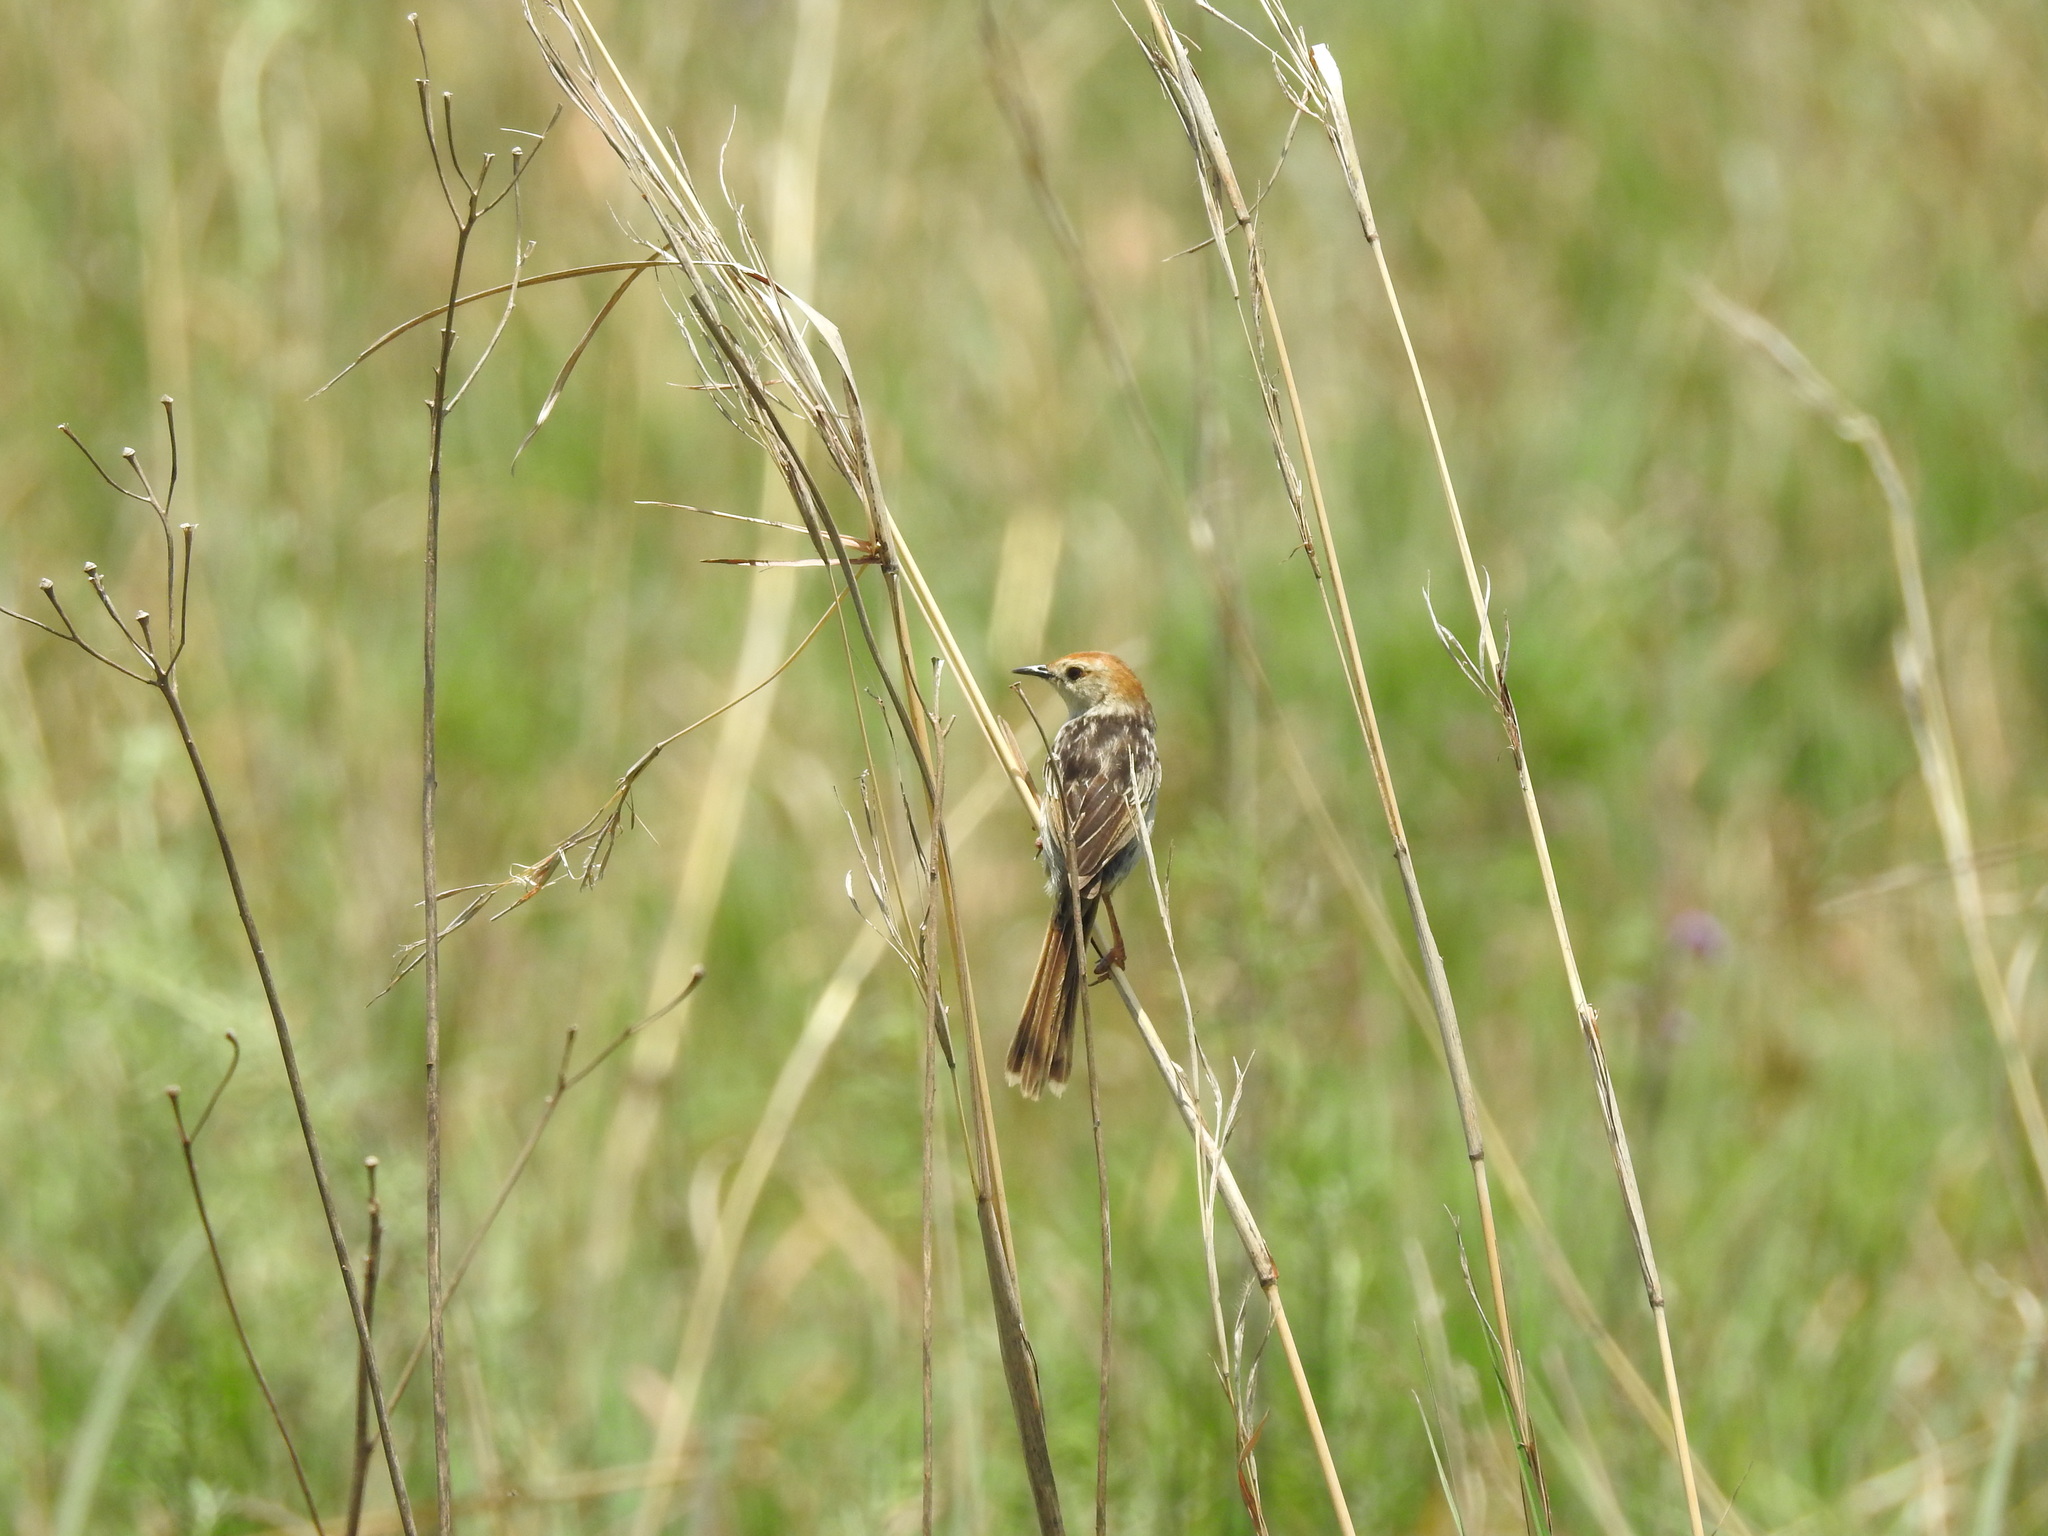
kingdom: Animalia
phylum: Chordata
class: Aves
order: Passeriformes
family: Cisticolidae
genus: Cisticola
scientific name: Cisticola tinniens
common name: Levaillant's cisticola
